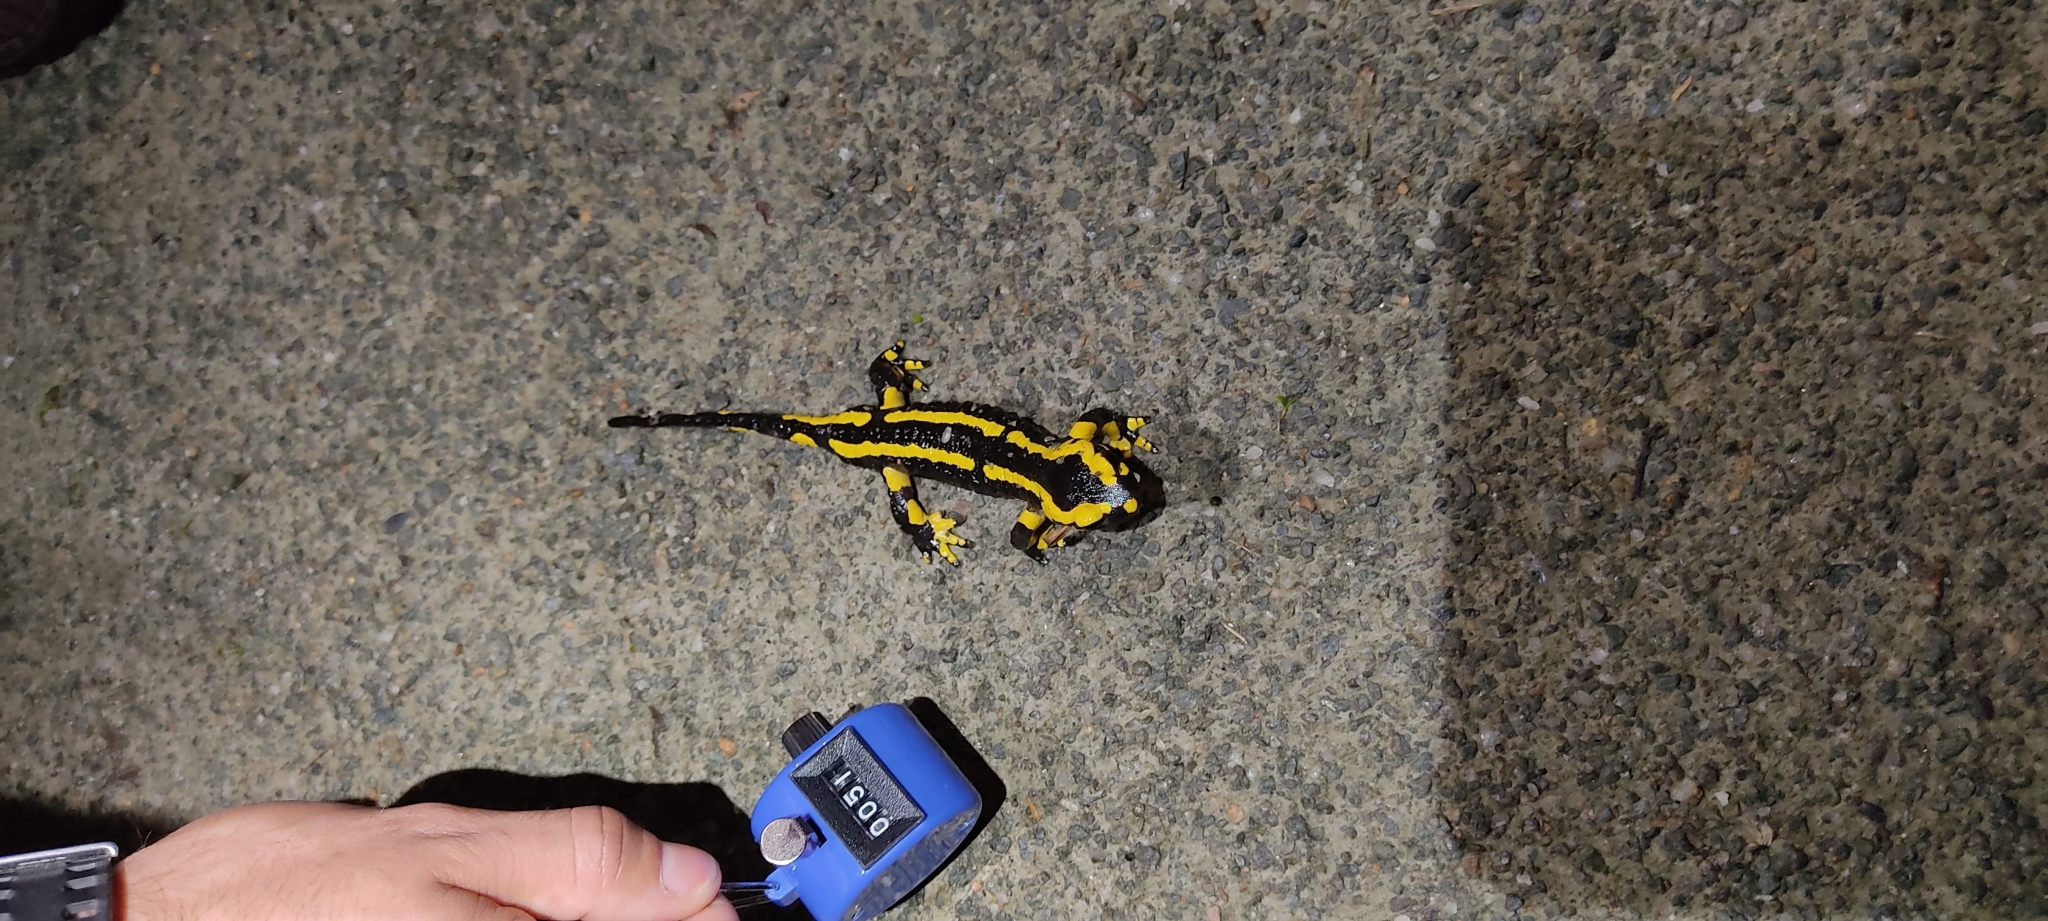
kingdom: Animalia
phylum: Chordata
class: Amphibia
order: Caudata
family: Salamandridae
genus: Salamandra
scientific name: Salamandra salamandra
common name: Fire salamander
